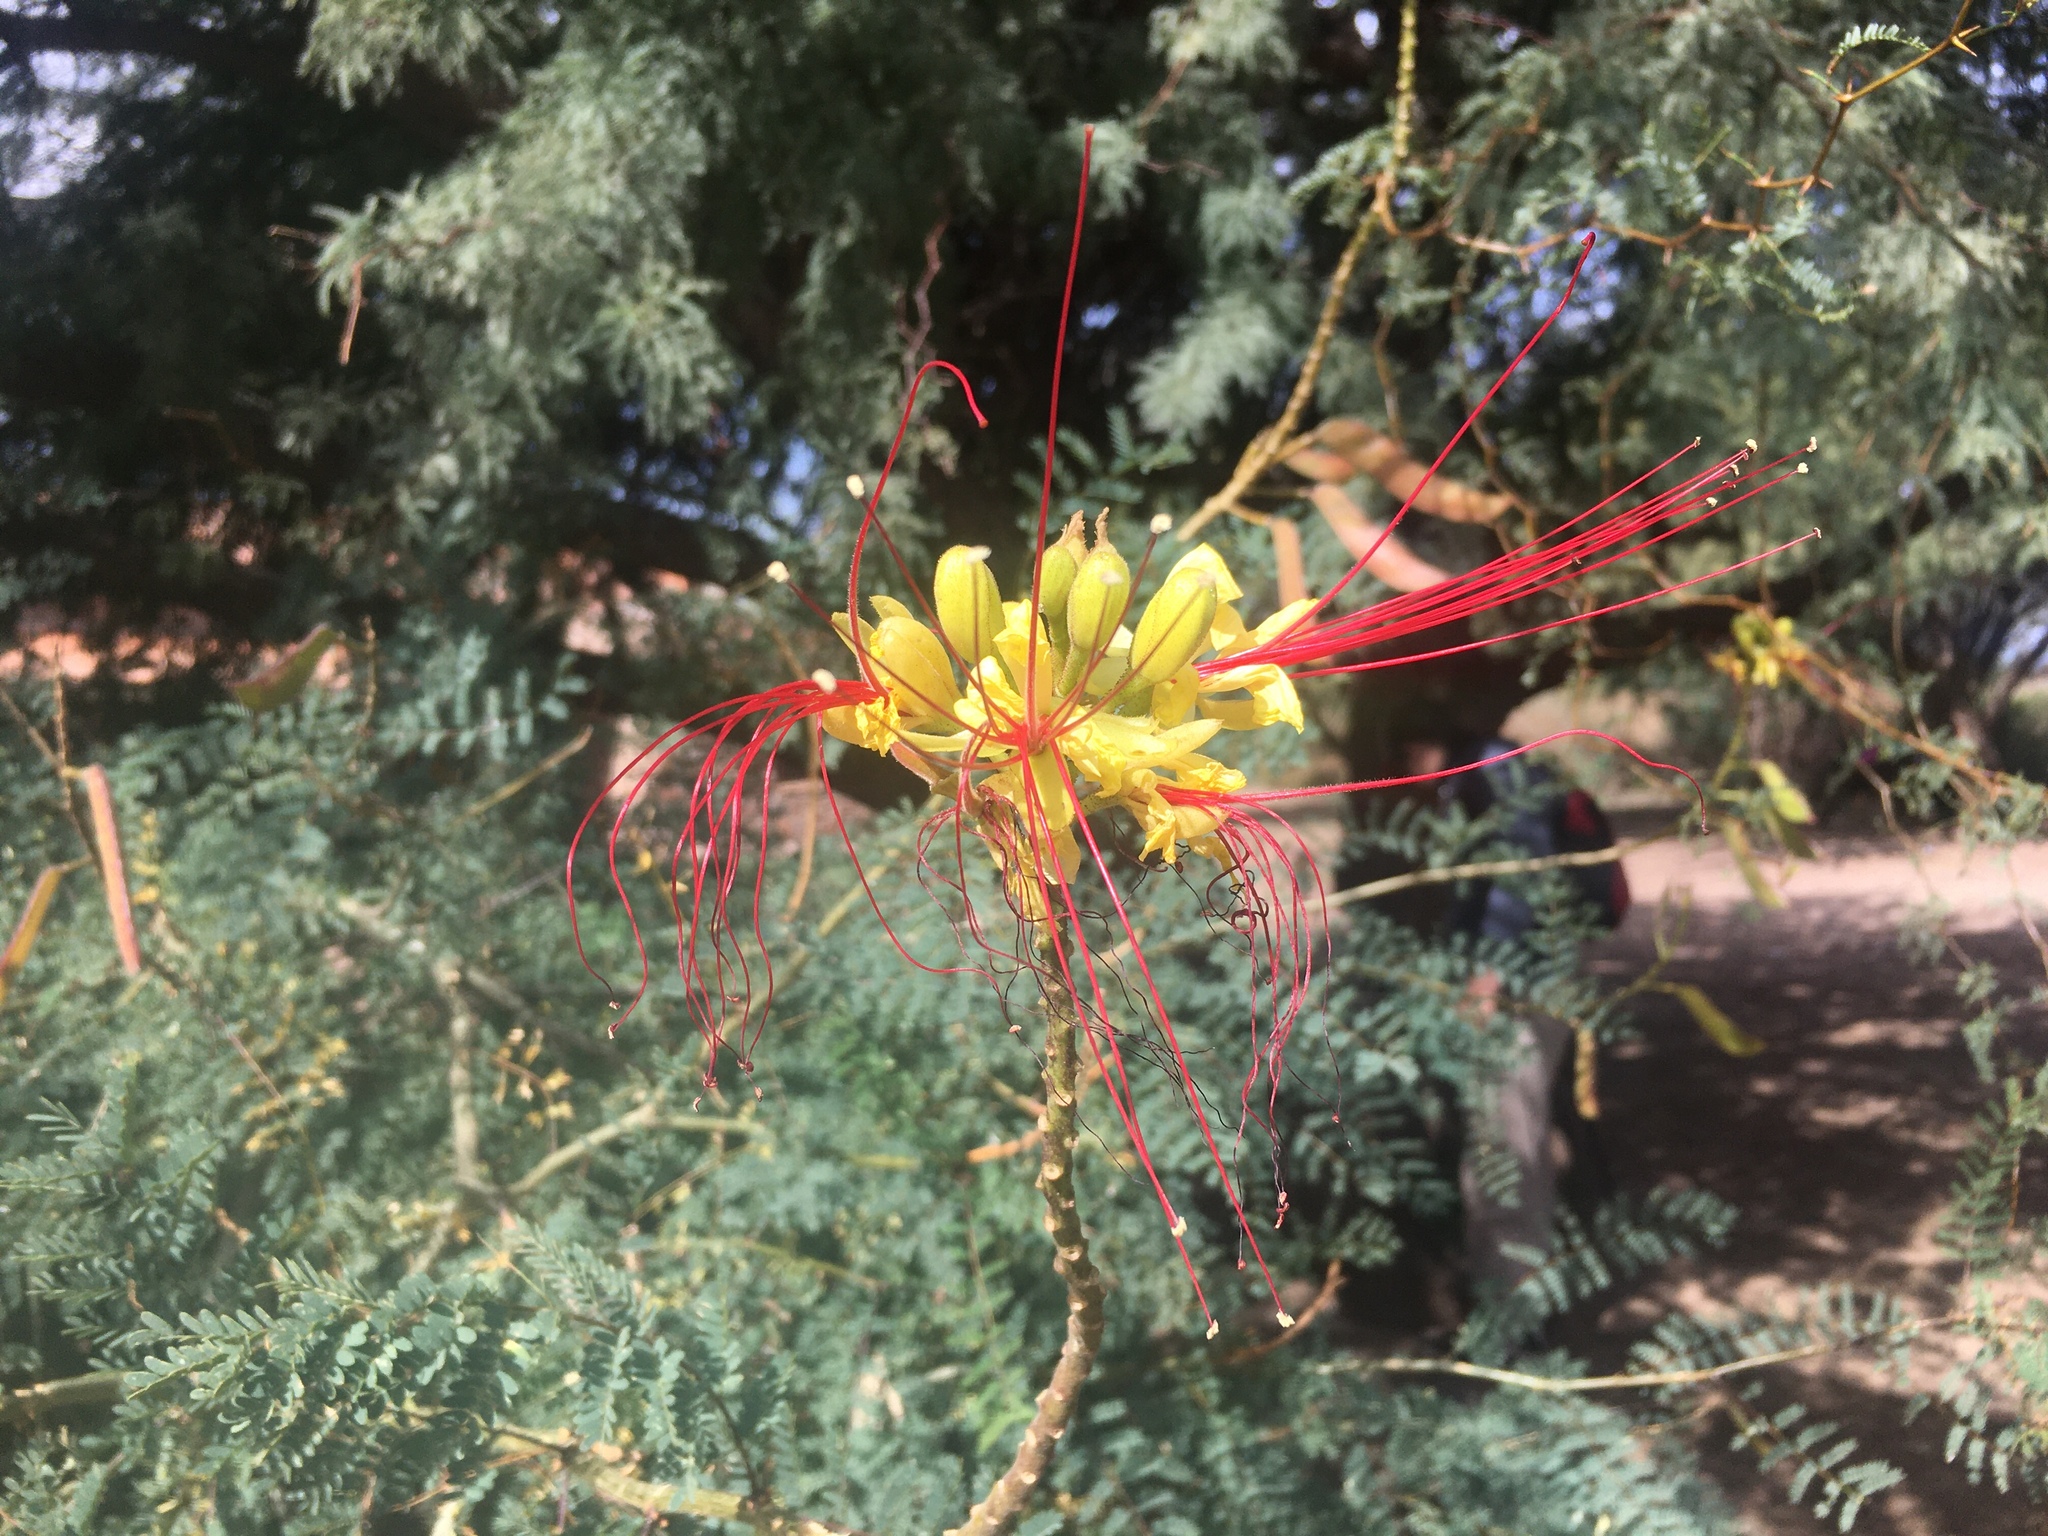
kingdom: Plantae
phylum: Tracheophyta
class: Magnoliopsida
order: Fabales
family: Fabaceae
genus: Erythrostemon
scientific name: Erythrostemon gilliesii
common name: Bird-of-paradise shrub
